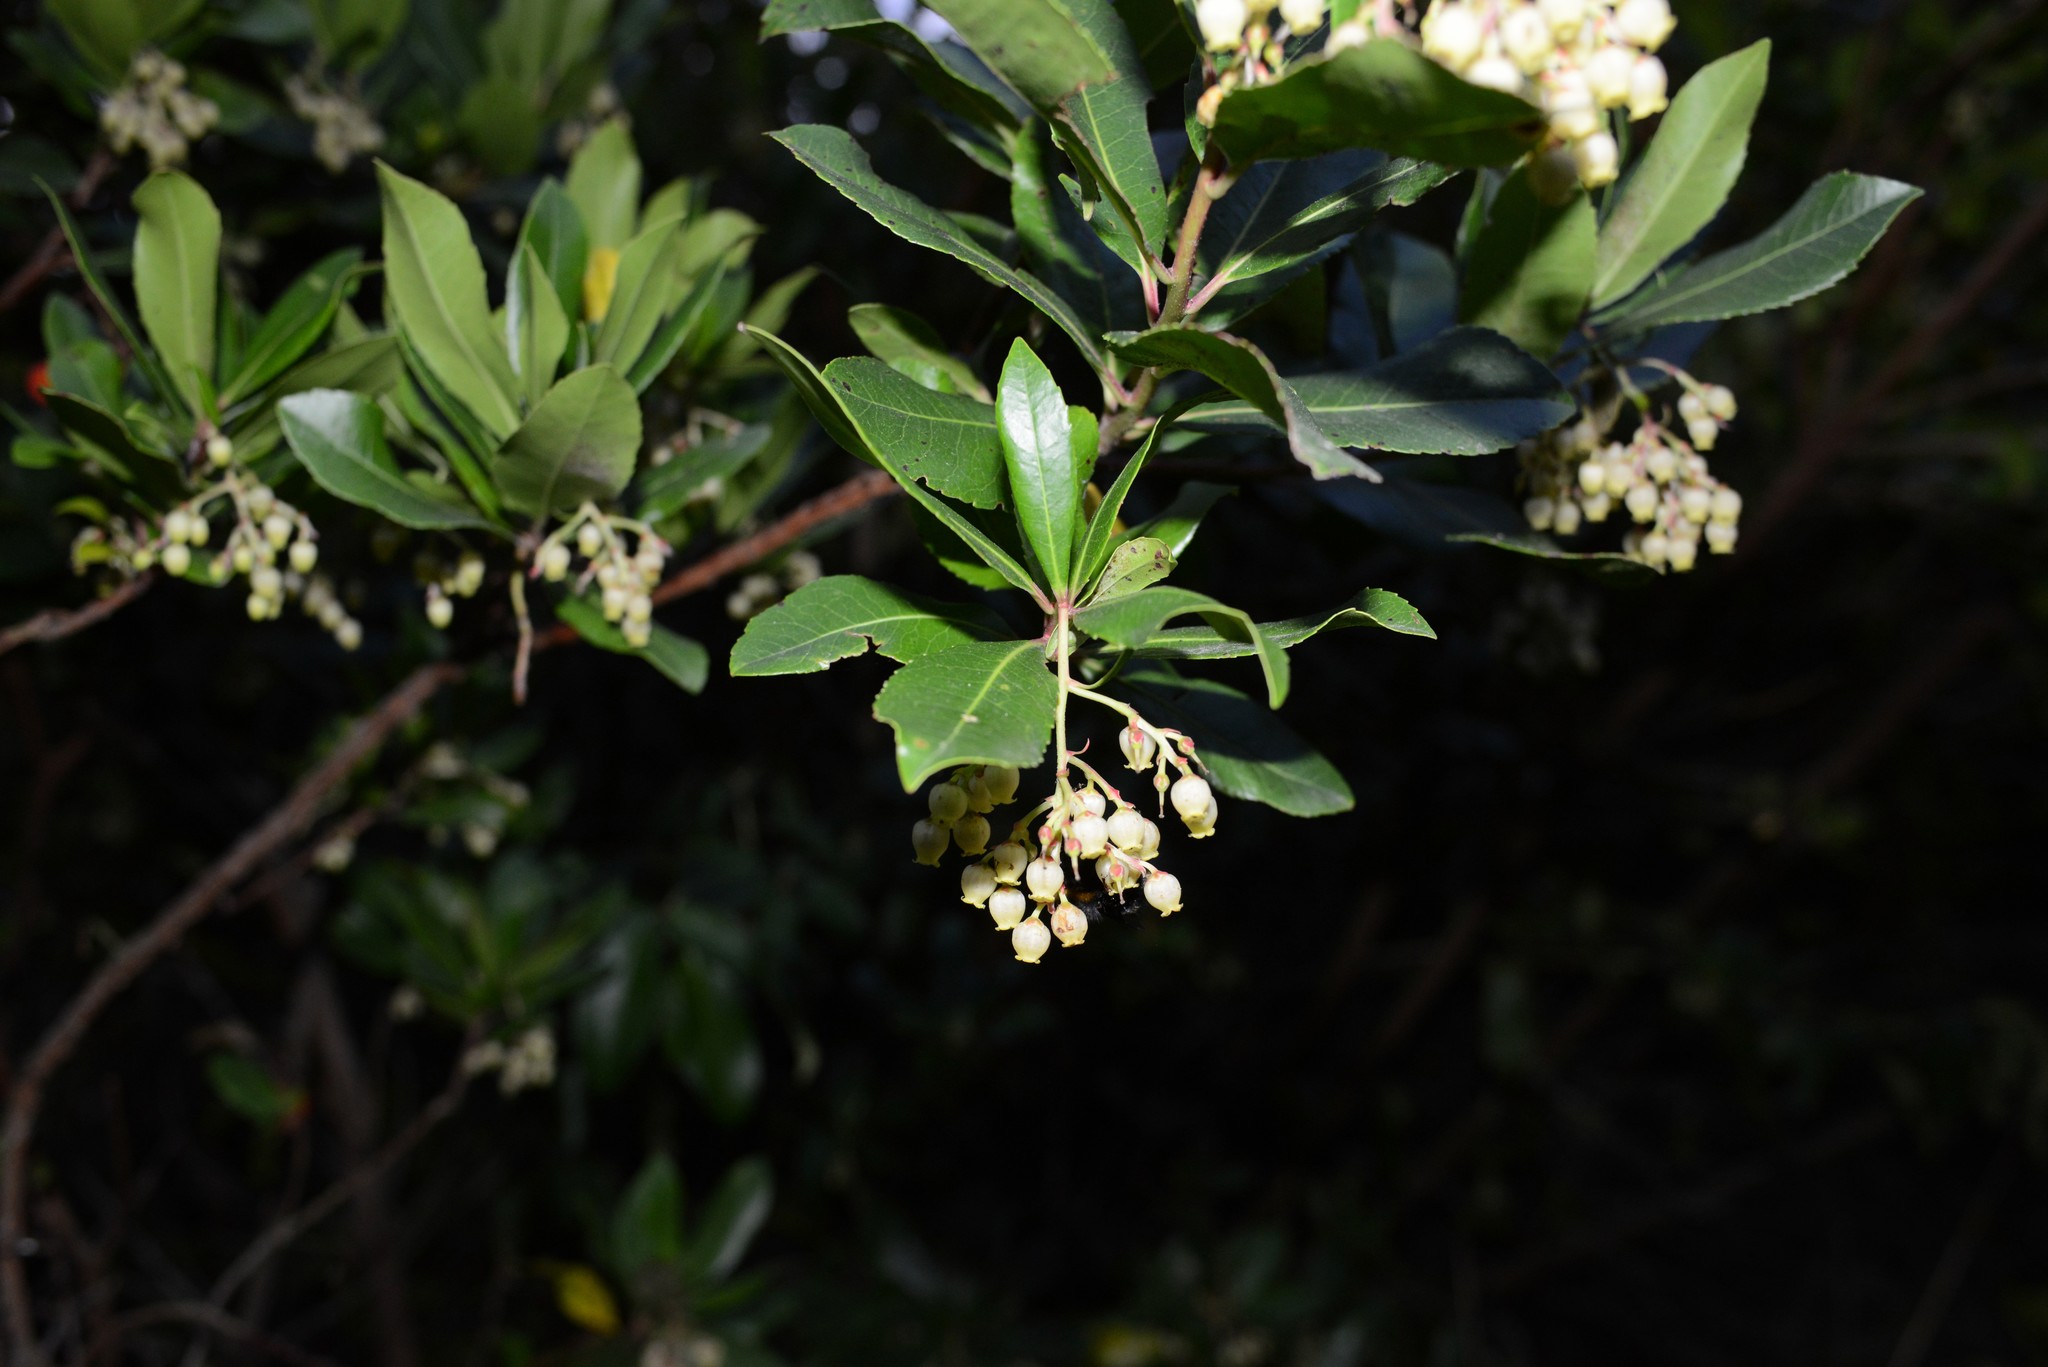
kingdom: Plantae
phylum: Tracheophyta
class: Magnoliopsida
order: Ericales
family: Ericaceae
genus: Arbutus
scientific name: Arbutus unedo
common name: Strawberry-tree
